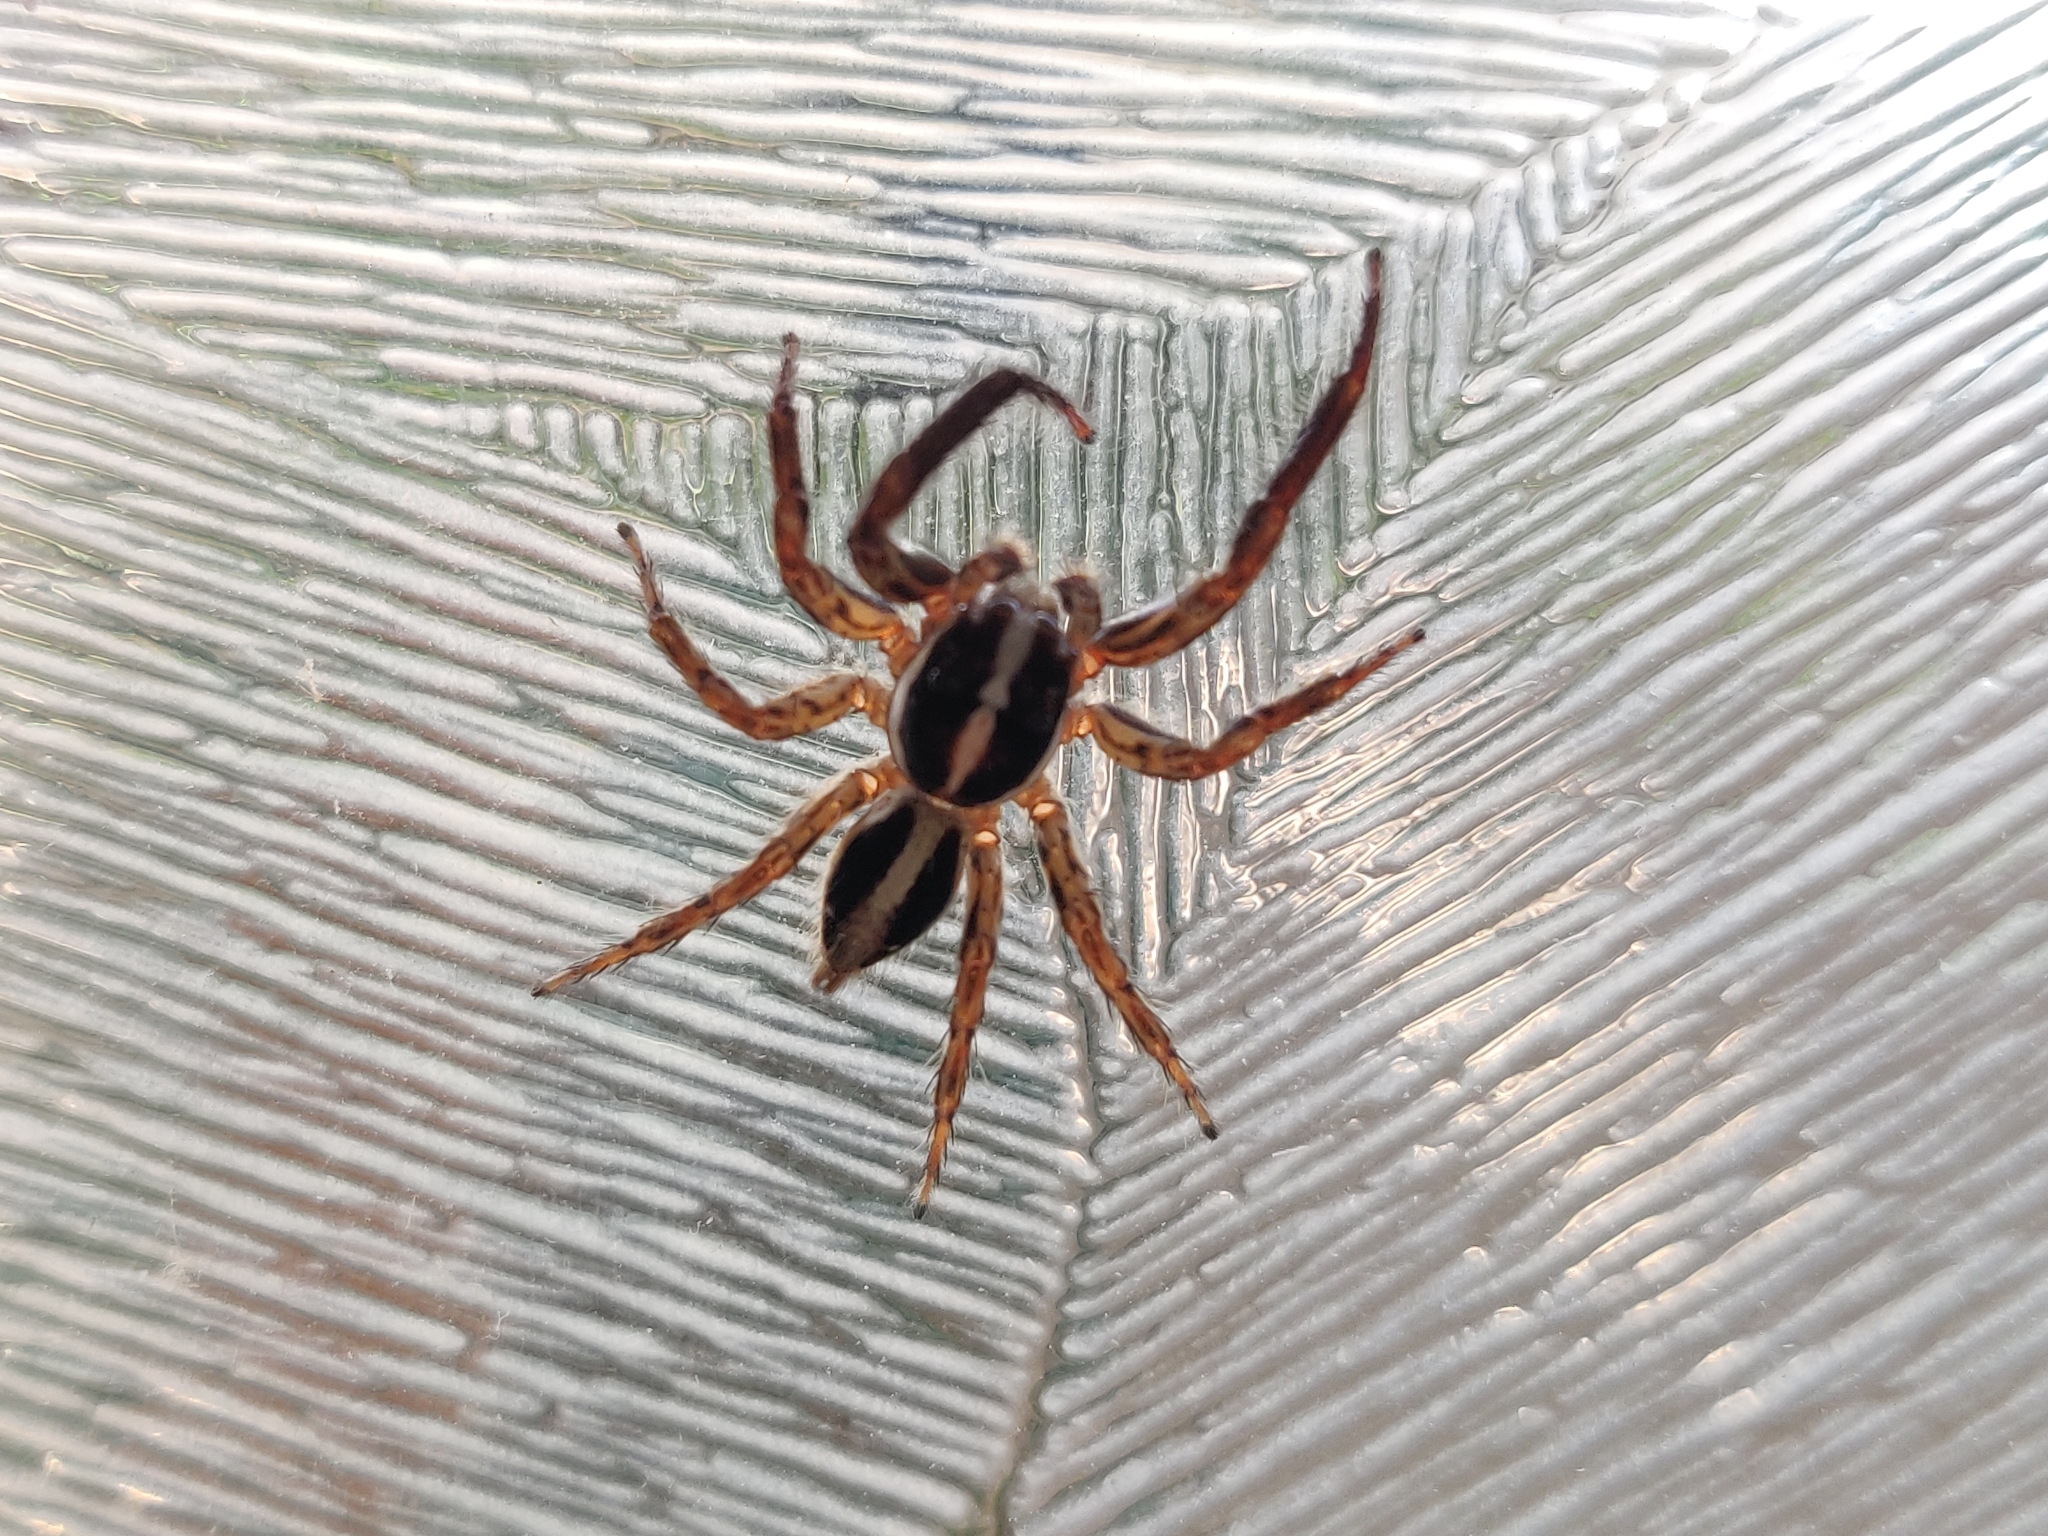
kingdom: Animalia
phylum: Arthropoda
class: Arachnida
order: Araneae
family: Salticidae
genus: Plexippus
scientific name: Plexippus paykulli
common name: Pantropical jumper
